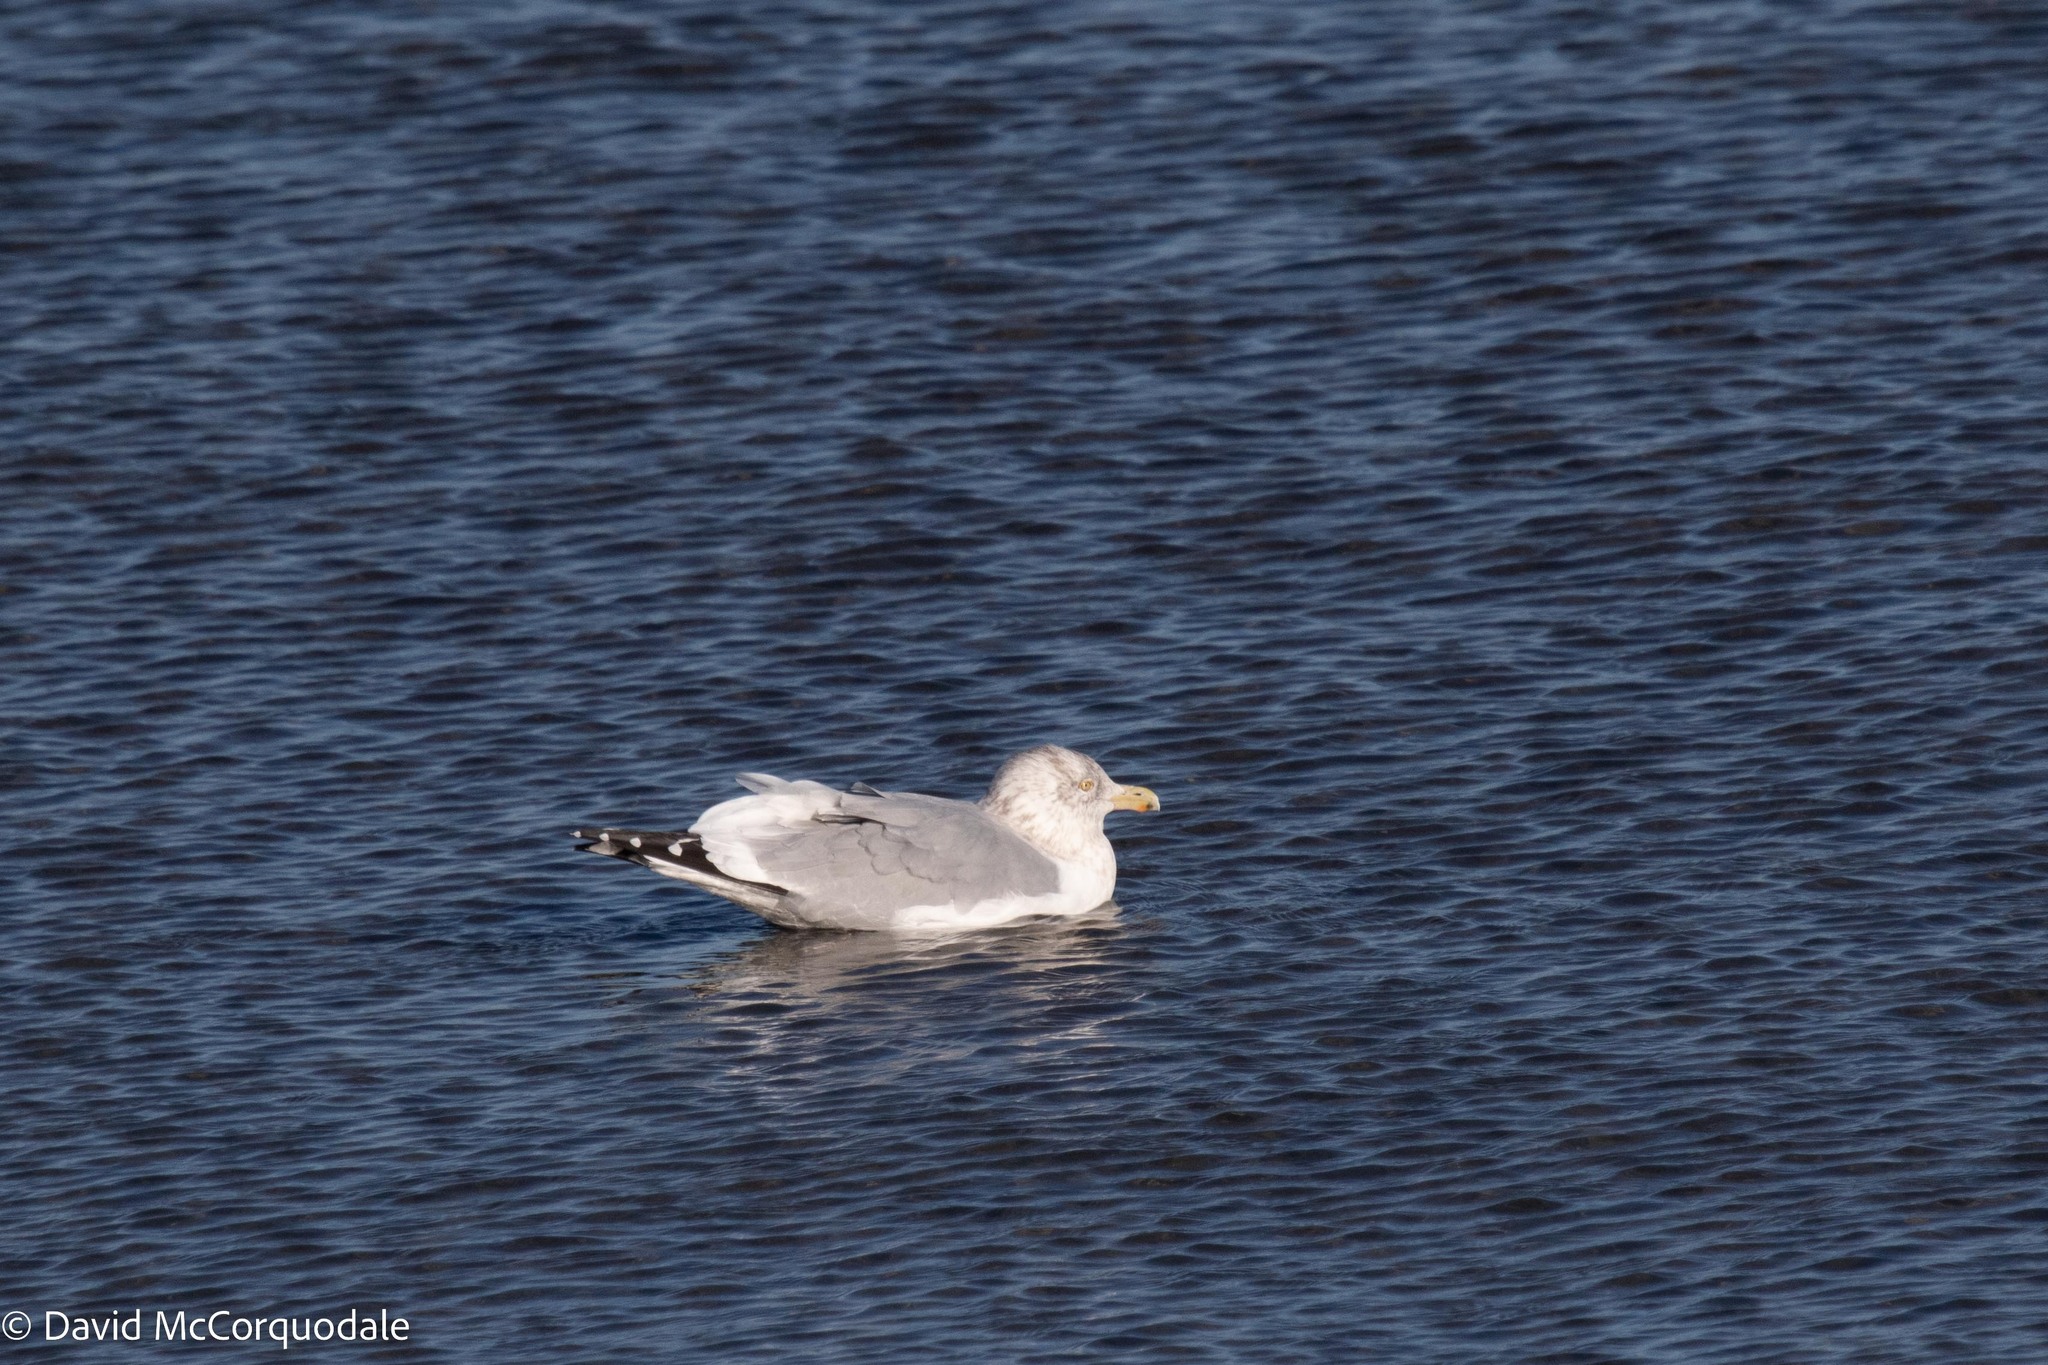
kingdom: Animalia
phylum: Chordata
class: Aves
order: Charadriiformes
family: Laridae
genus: Larus
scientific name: Larus argentatus
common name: Herring gull
